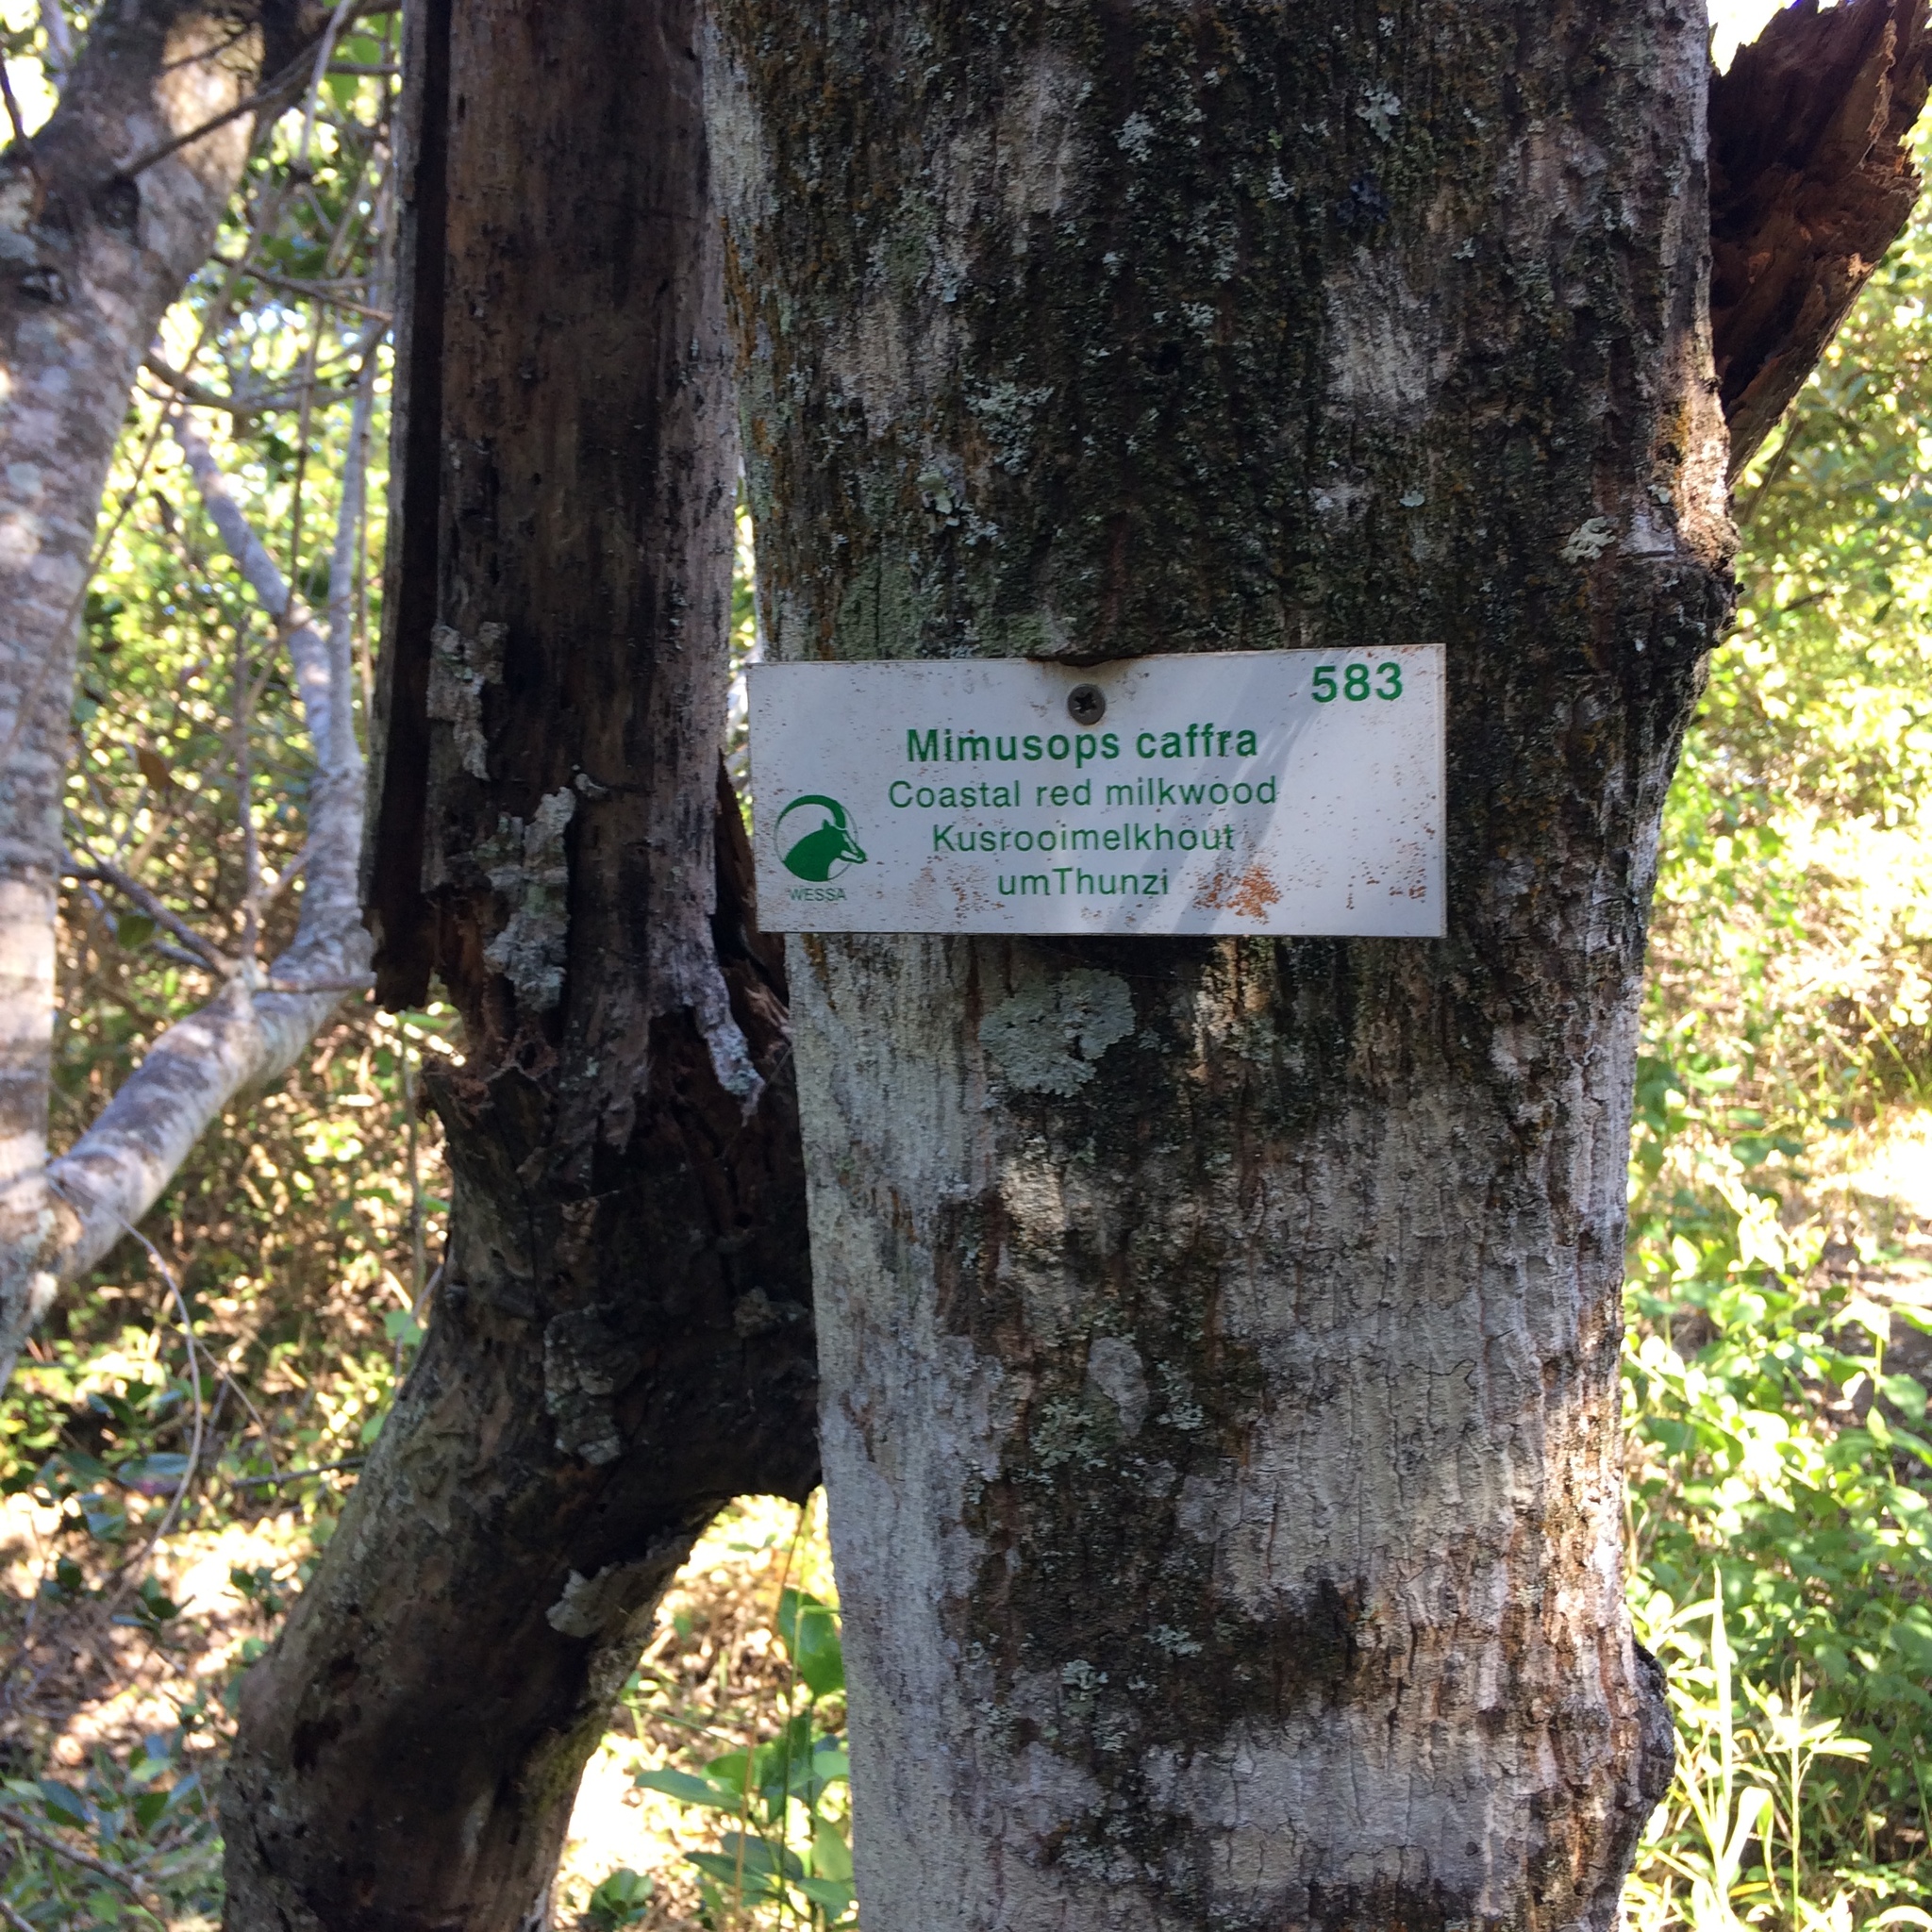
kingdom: Plantae
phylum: Tracheophyta
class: Magnoliopsida
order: Ericales
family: Sapotaceae
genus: Mimusops
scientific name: Mimusops caffra
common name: Coastal red milkwood
